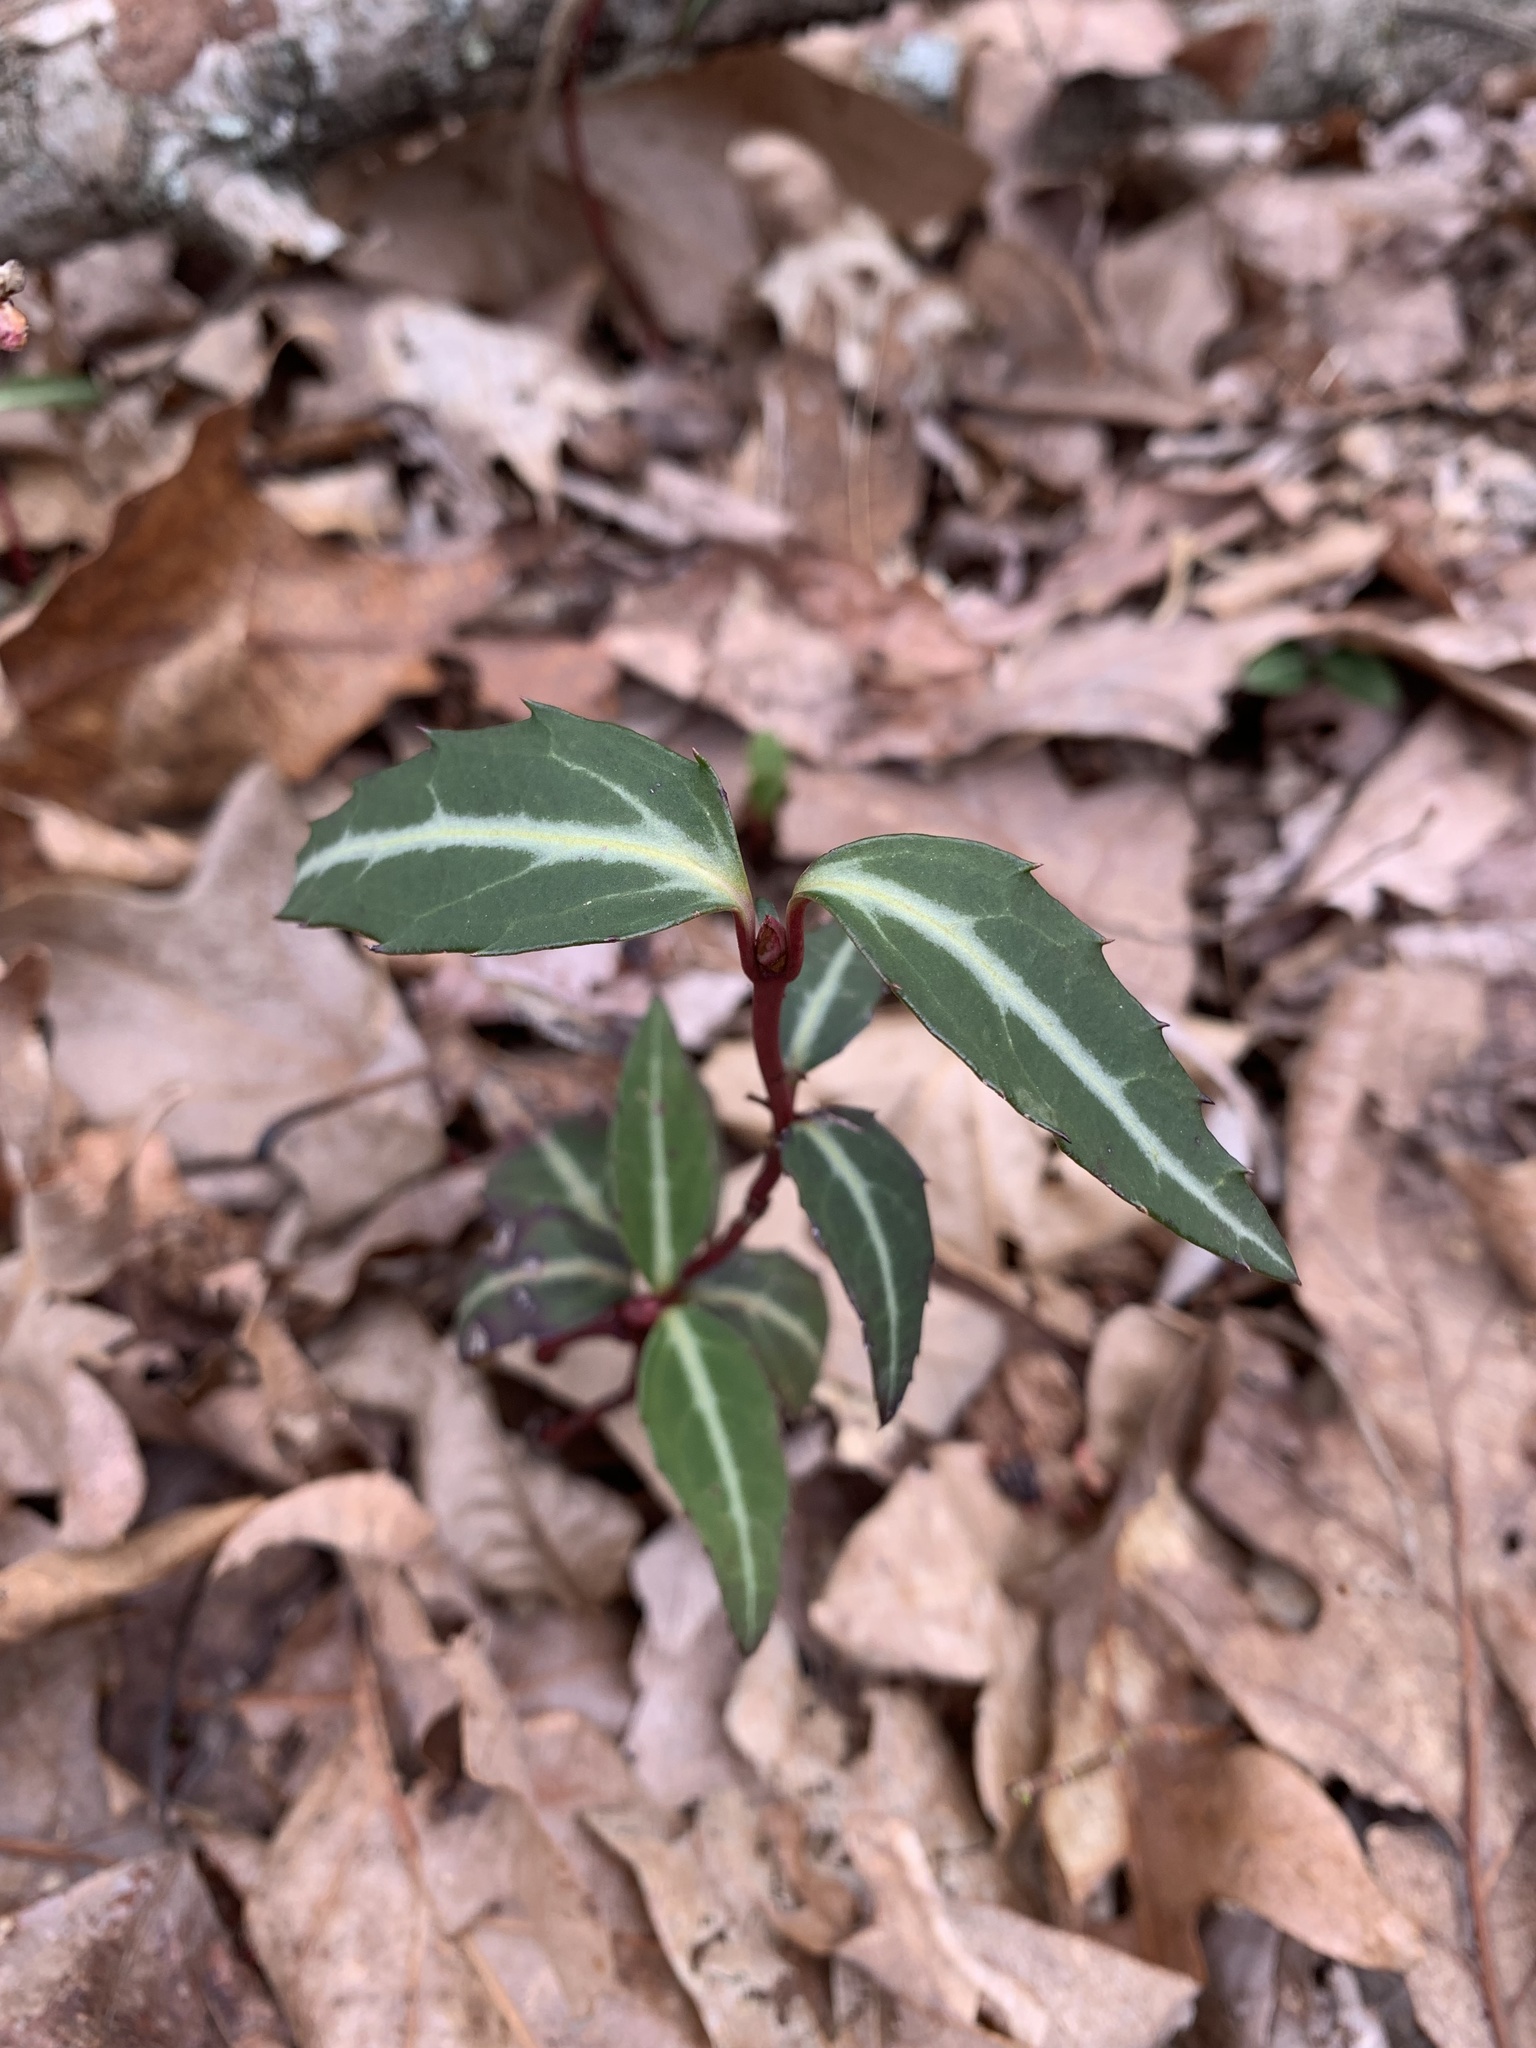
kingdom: Plantae
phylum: Tracheophyta
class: Magnoliopsida
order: Ericales
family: Ericaceae
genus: Chimaphila
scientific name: Chimaphila maculata
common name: Spotted pipsissewa
